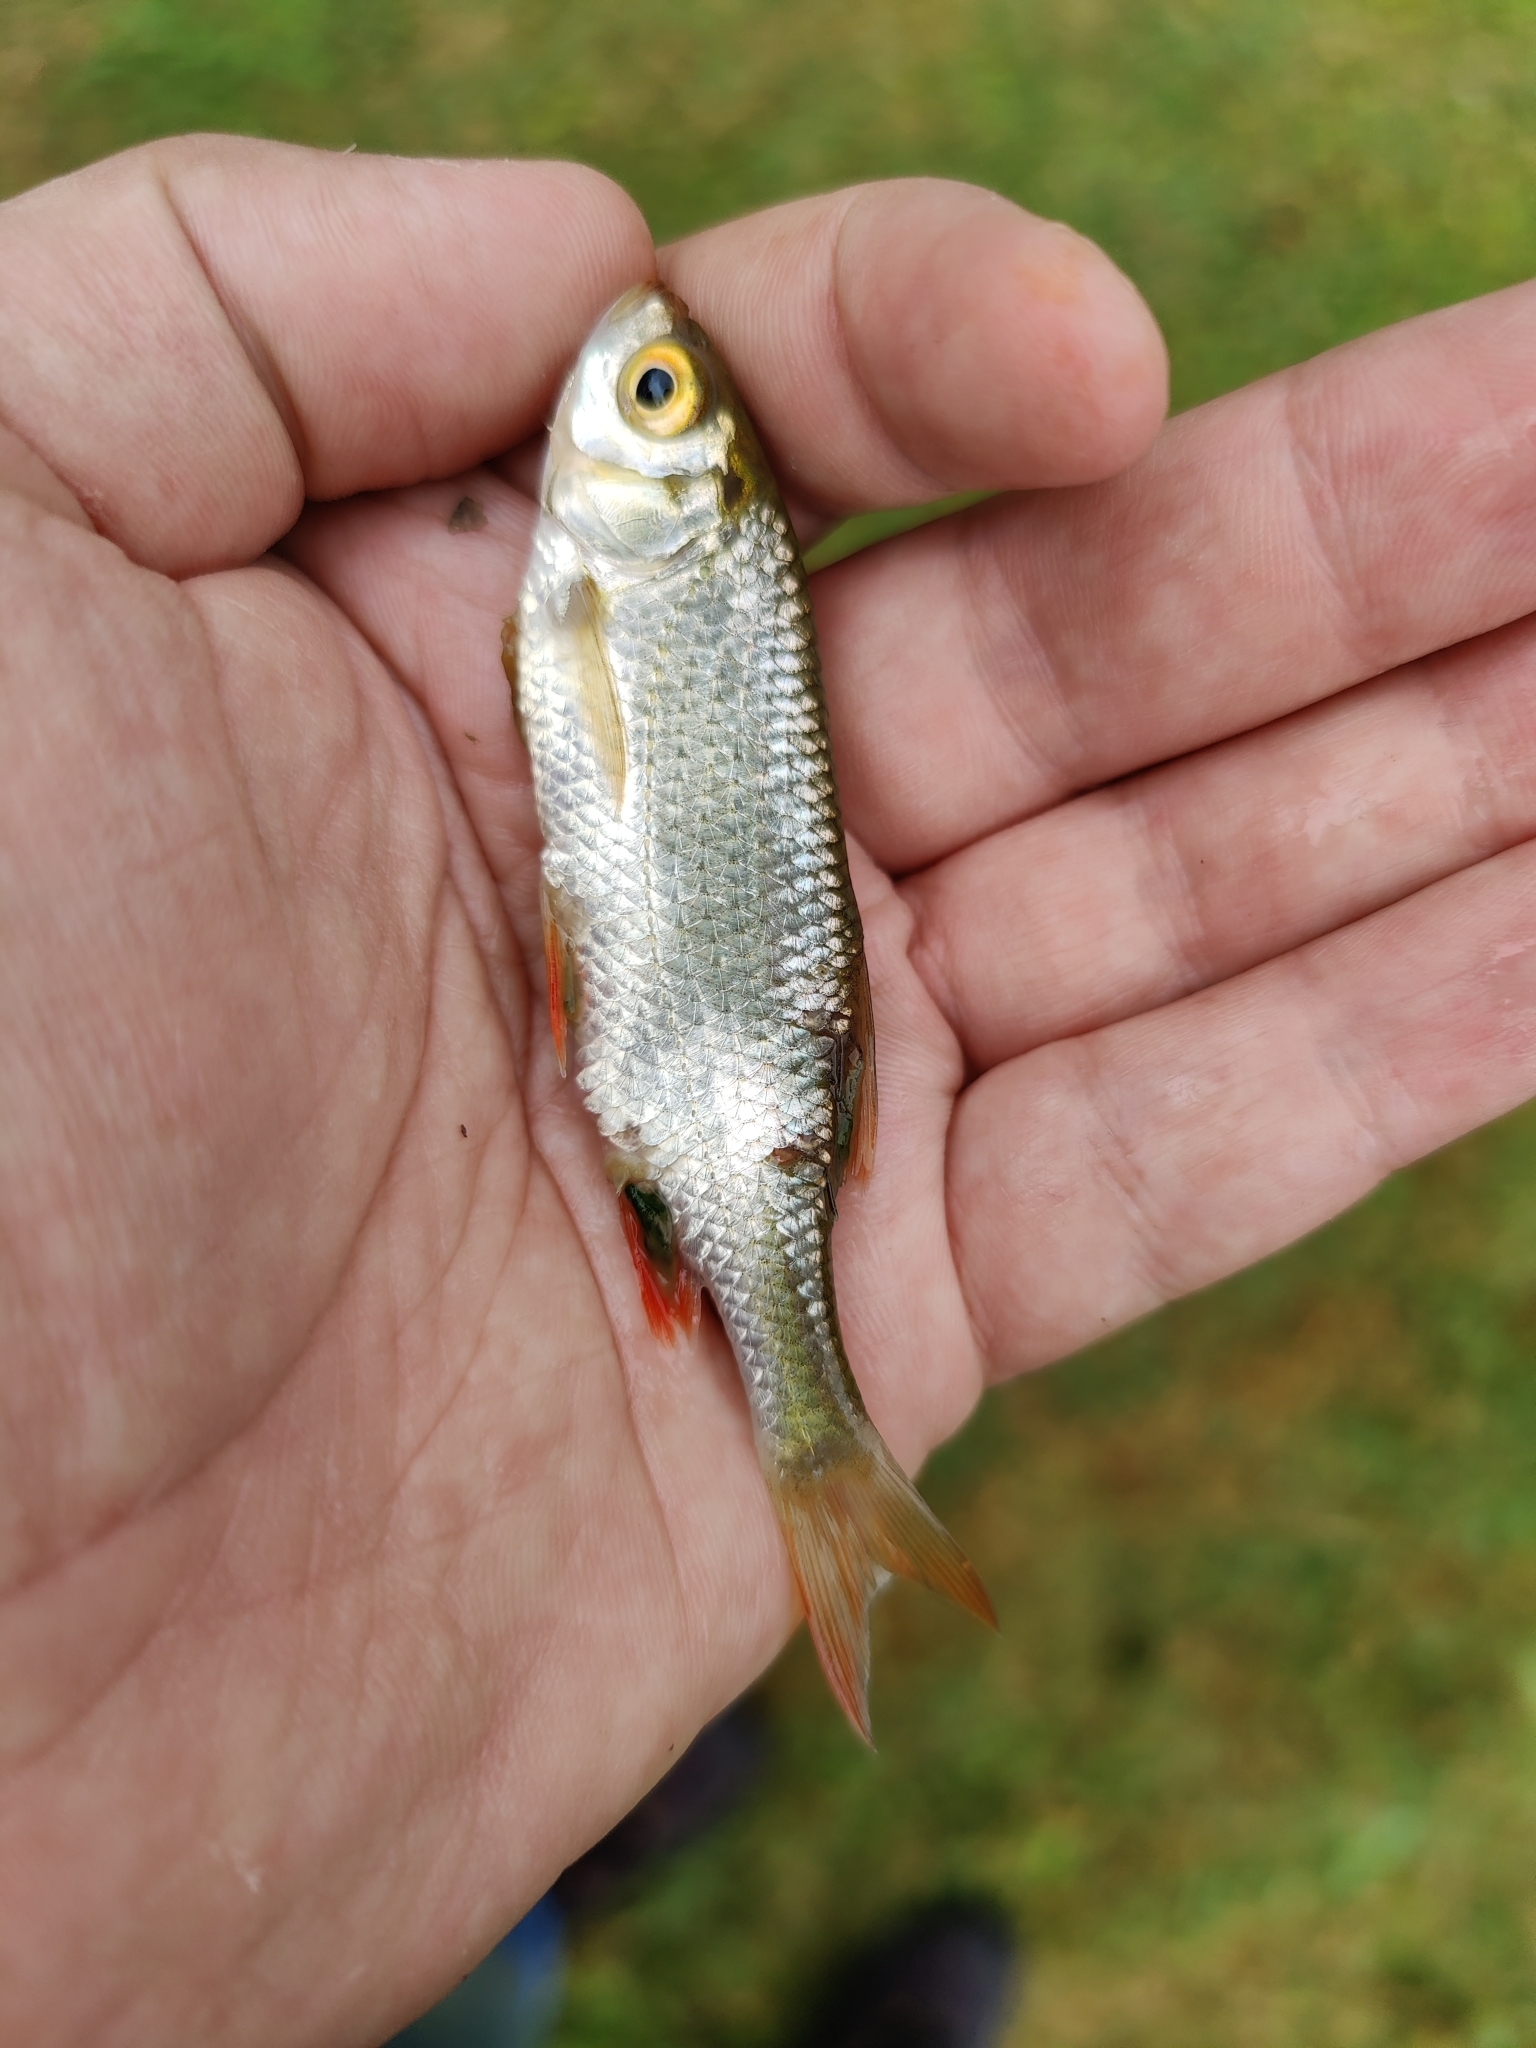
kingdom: Animalia
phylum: Chordata
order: Cypriniformes
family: Cyprinidae
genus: Scardinius
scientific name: Scardinius erythrophthalmus
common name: Rudd
